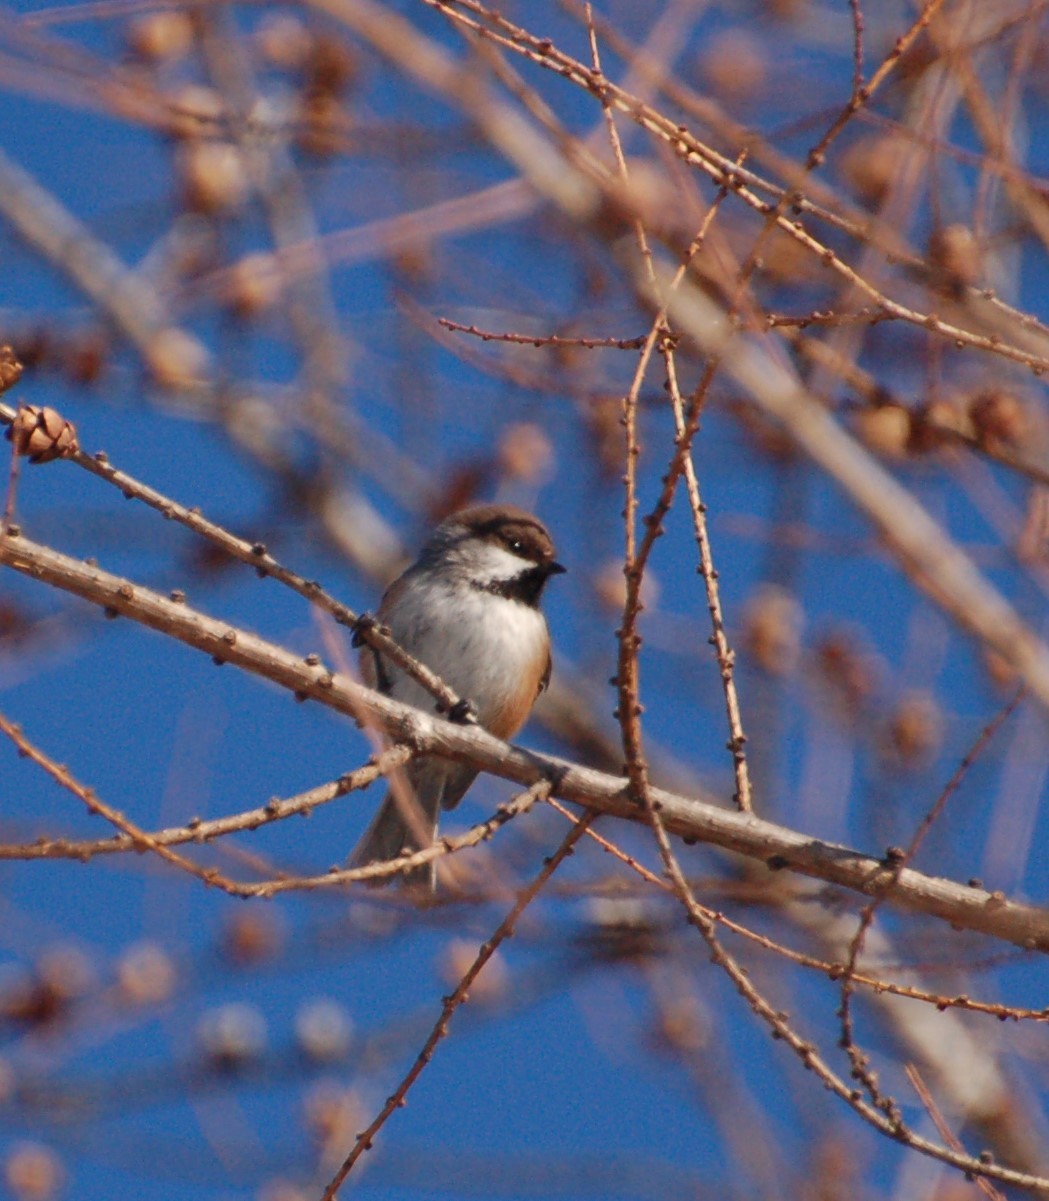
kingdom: Animalia
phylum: Chordata
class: Aves
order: Passeriformes
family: Paridae
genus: Poecile
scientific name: Poecile hudsonicus
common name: Boreal chickadee
